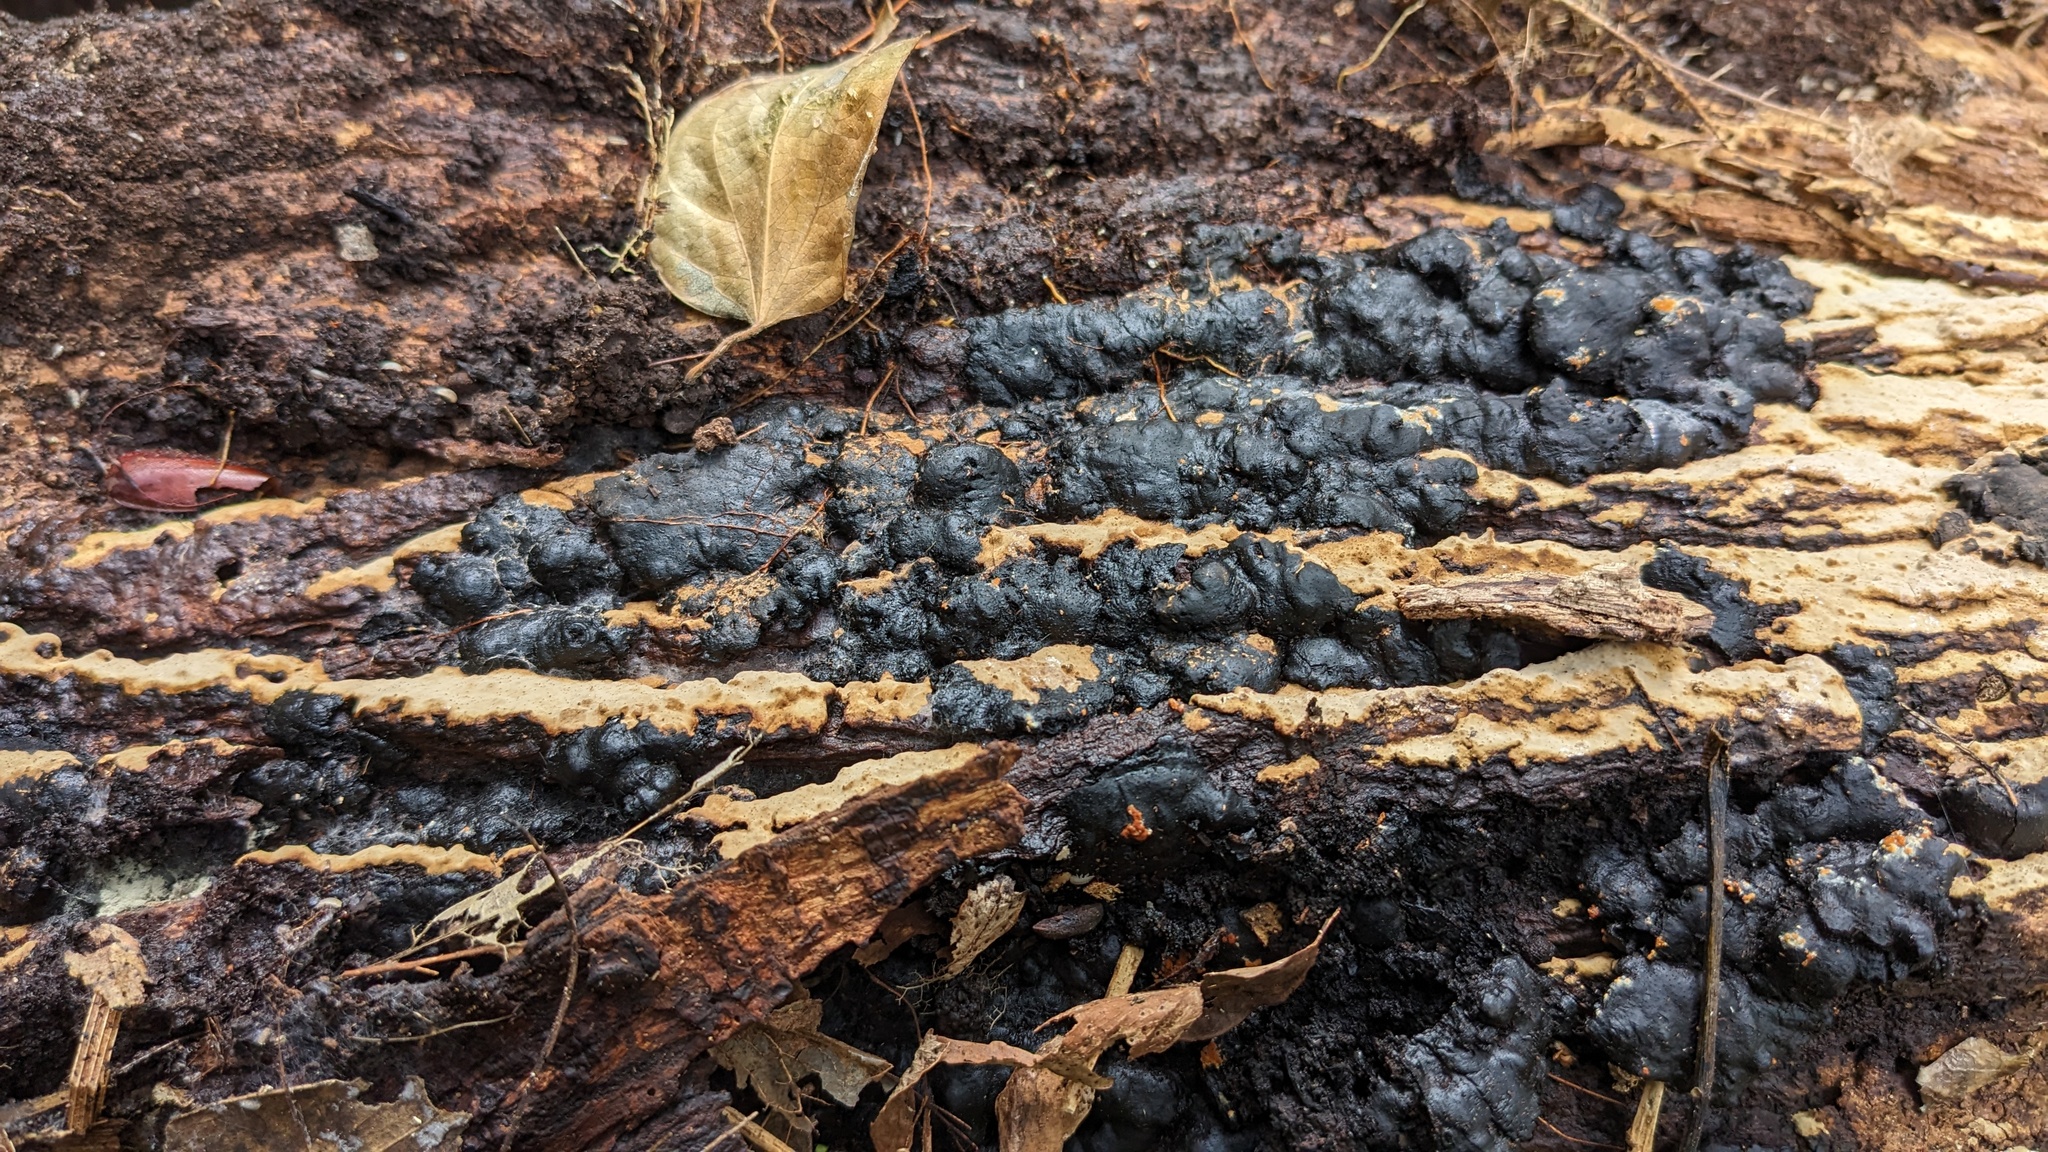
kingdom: Fungi
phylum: Ascomycota
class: Sordariomycetes
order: Xylariales
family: Xylariaceae
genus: Kretzschmaria
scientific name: Kretzschmaria deusta
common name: Brittle cinder
